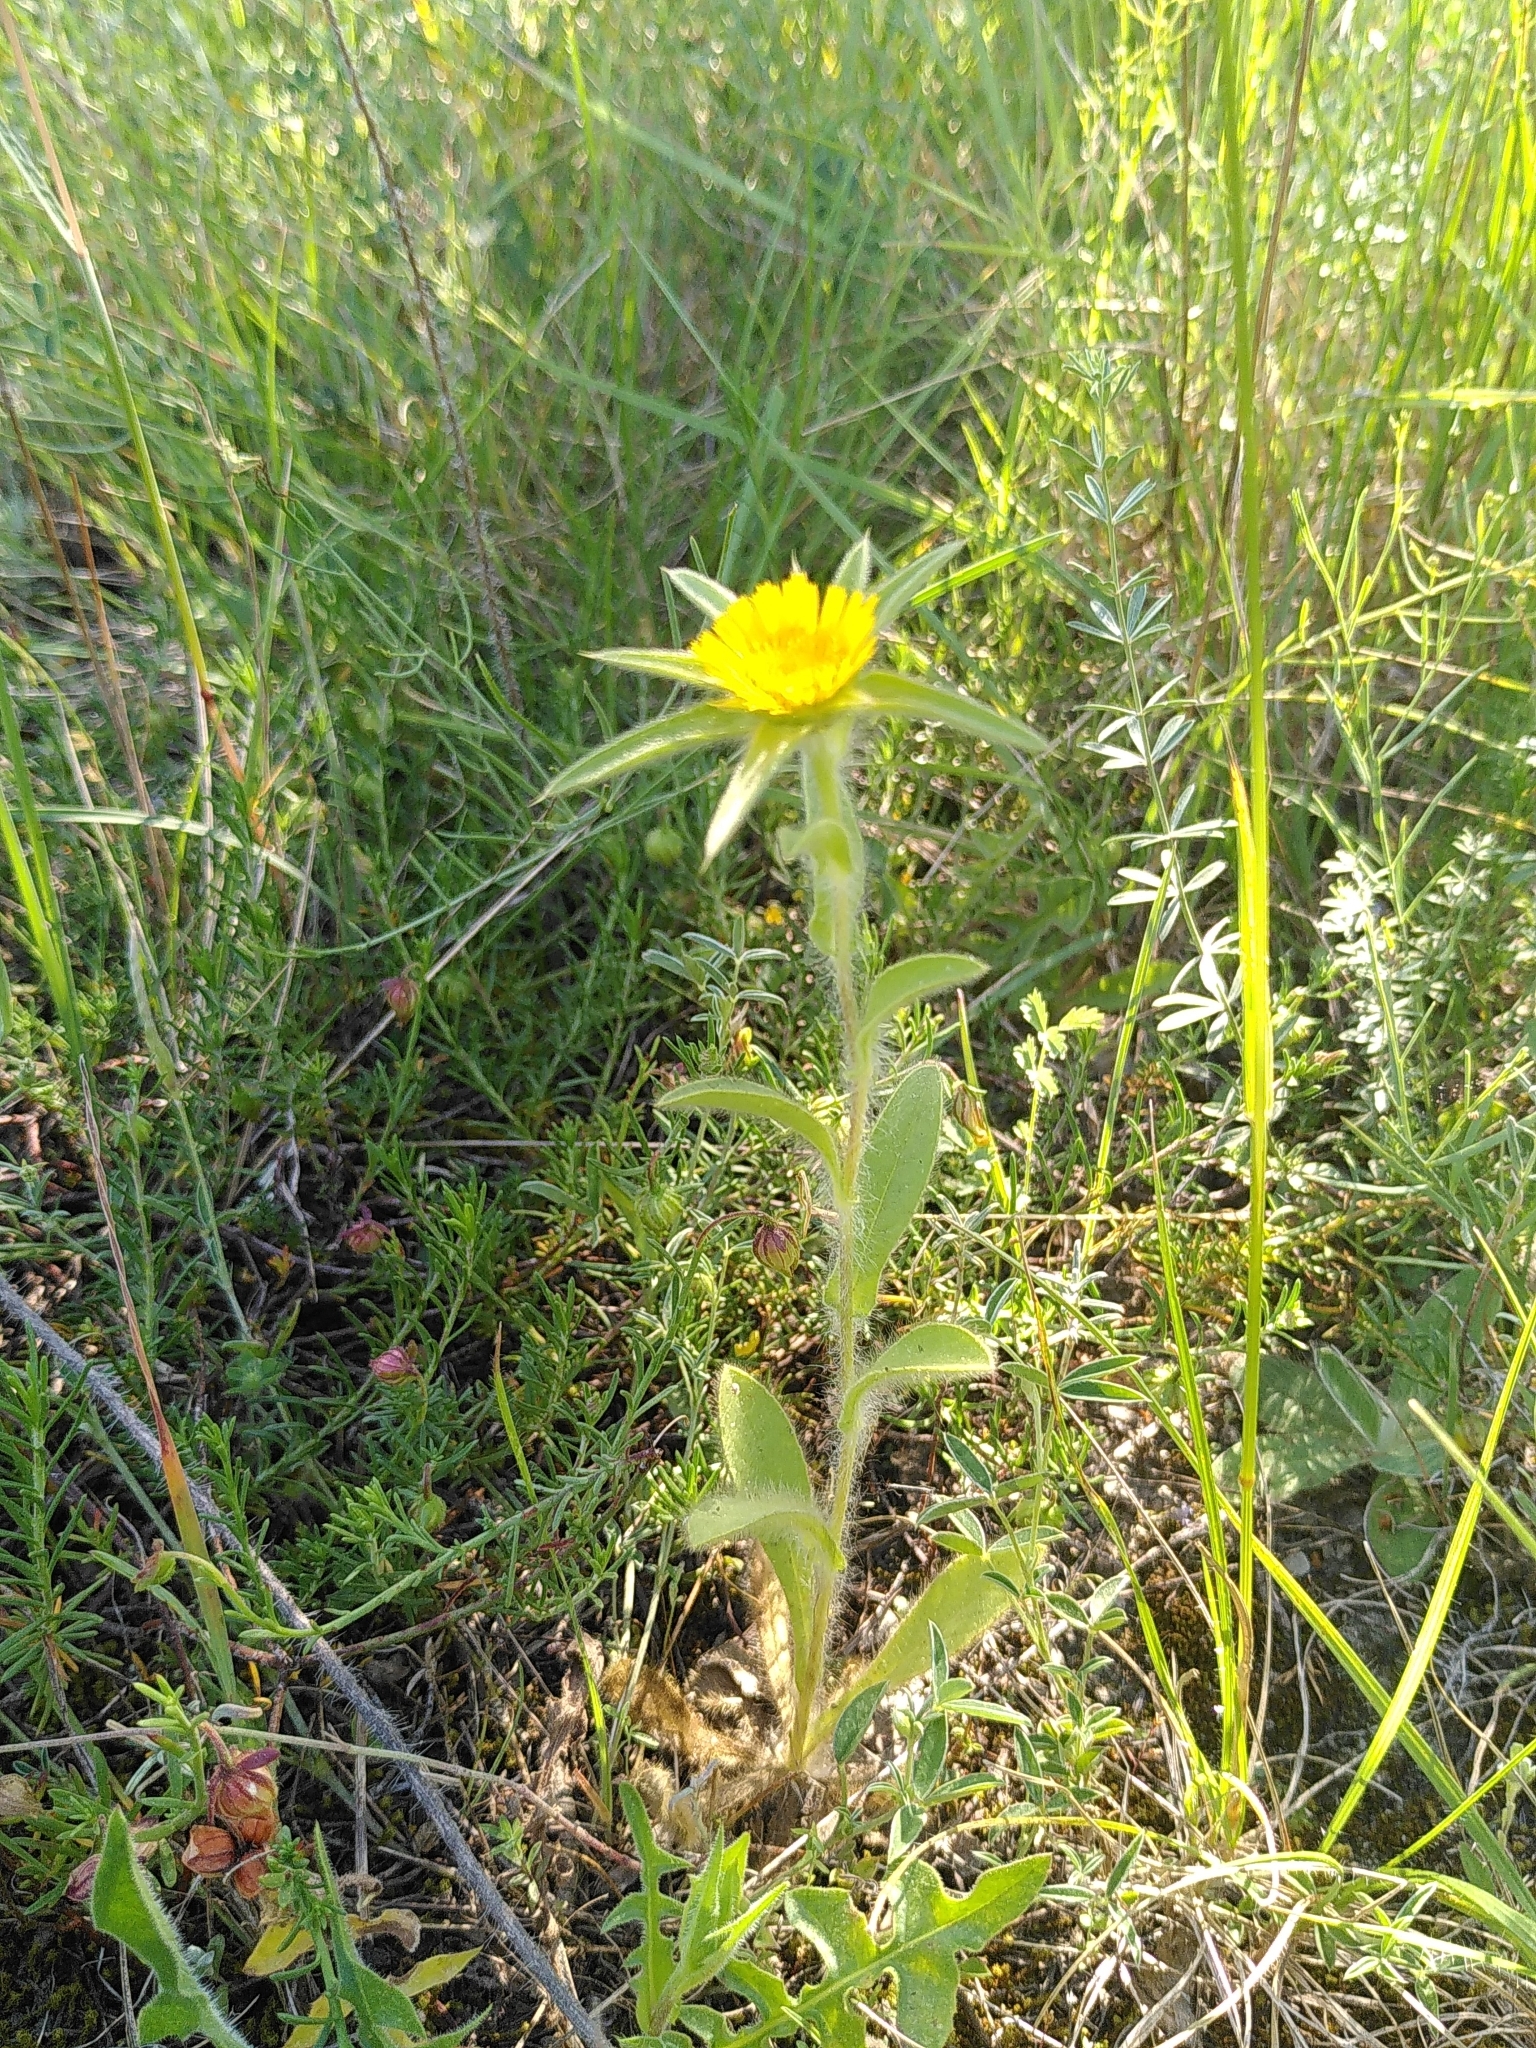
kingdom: Plantae
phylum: Tracheophyta
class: Magnoliopsida
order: Asterales
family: Asteraceae
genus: Pallenis
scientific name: Pallenis spinosa
